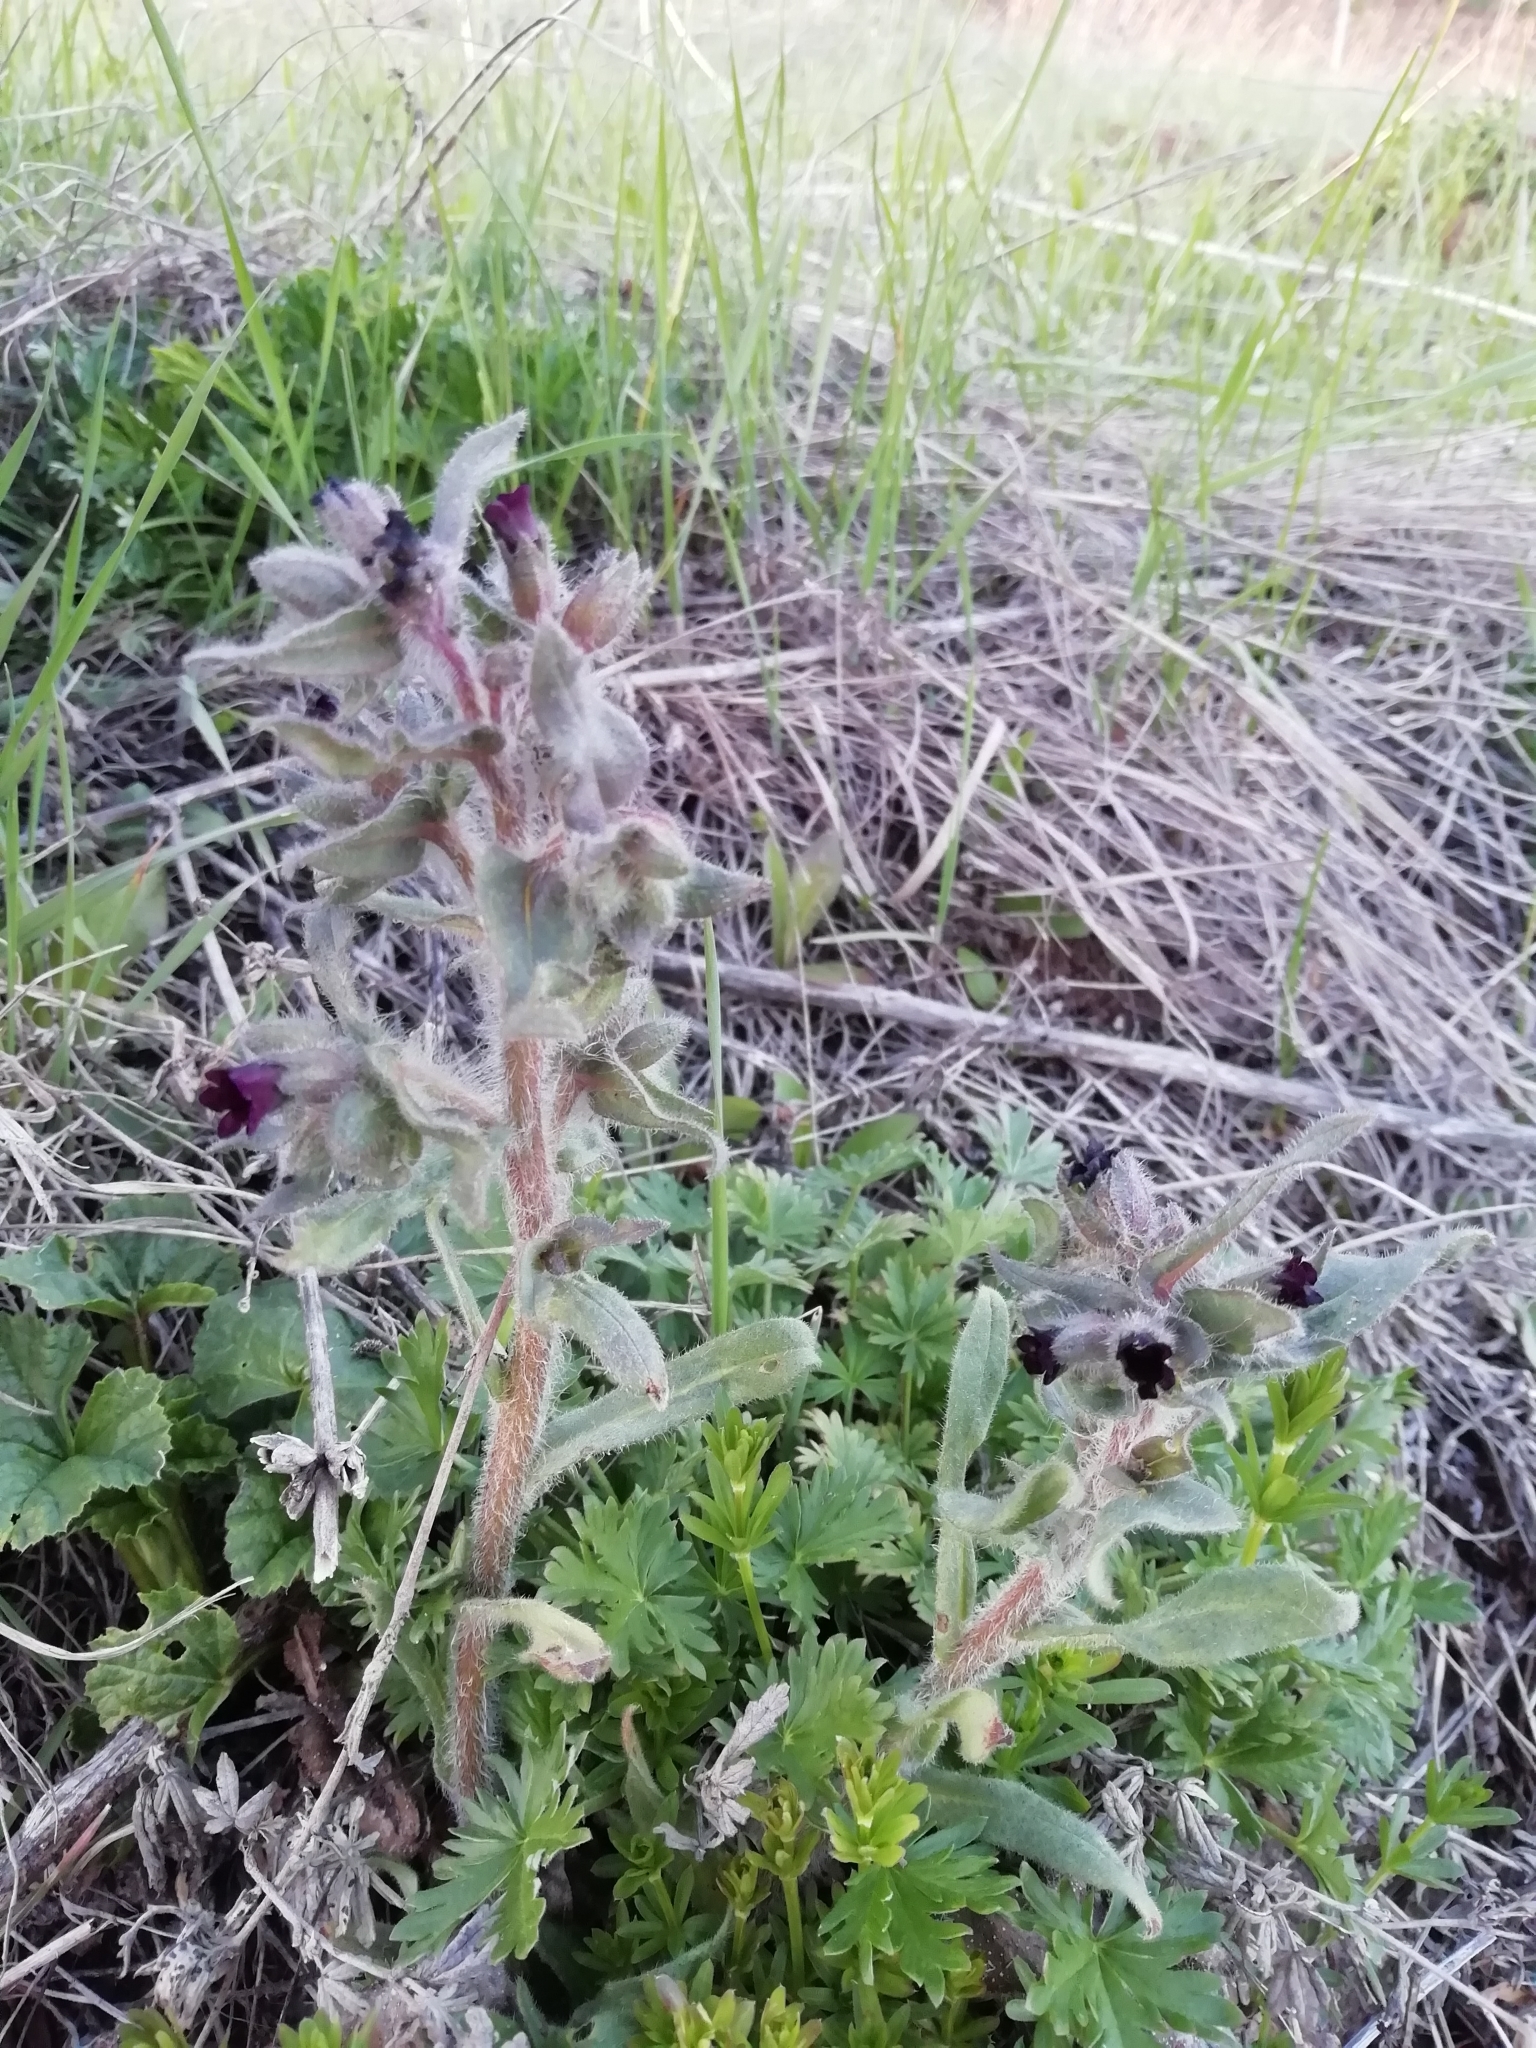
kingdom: Plantae
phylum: Tracheophyta
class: Magnoliopsida
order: Boraginales
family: Boraginaceae
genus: Nonea
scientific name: Nonea pulla
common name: Brown nonea
